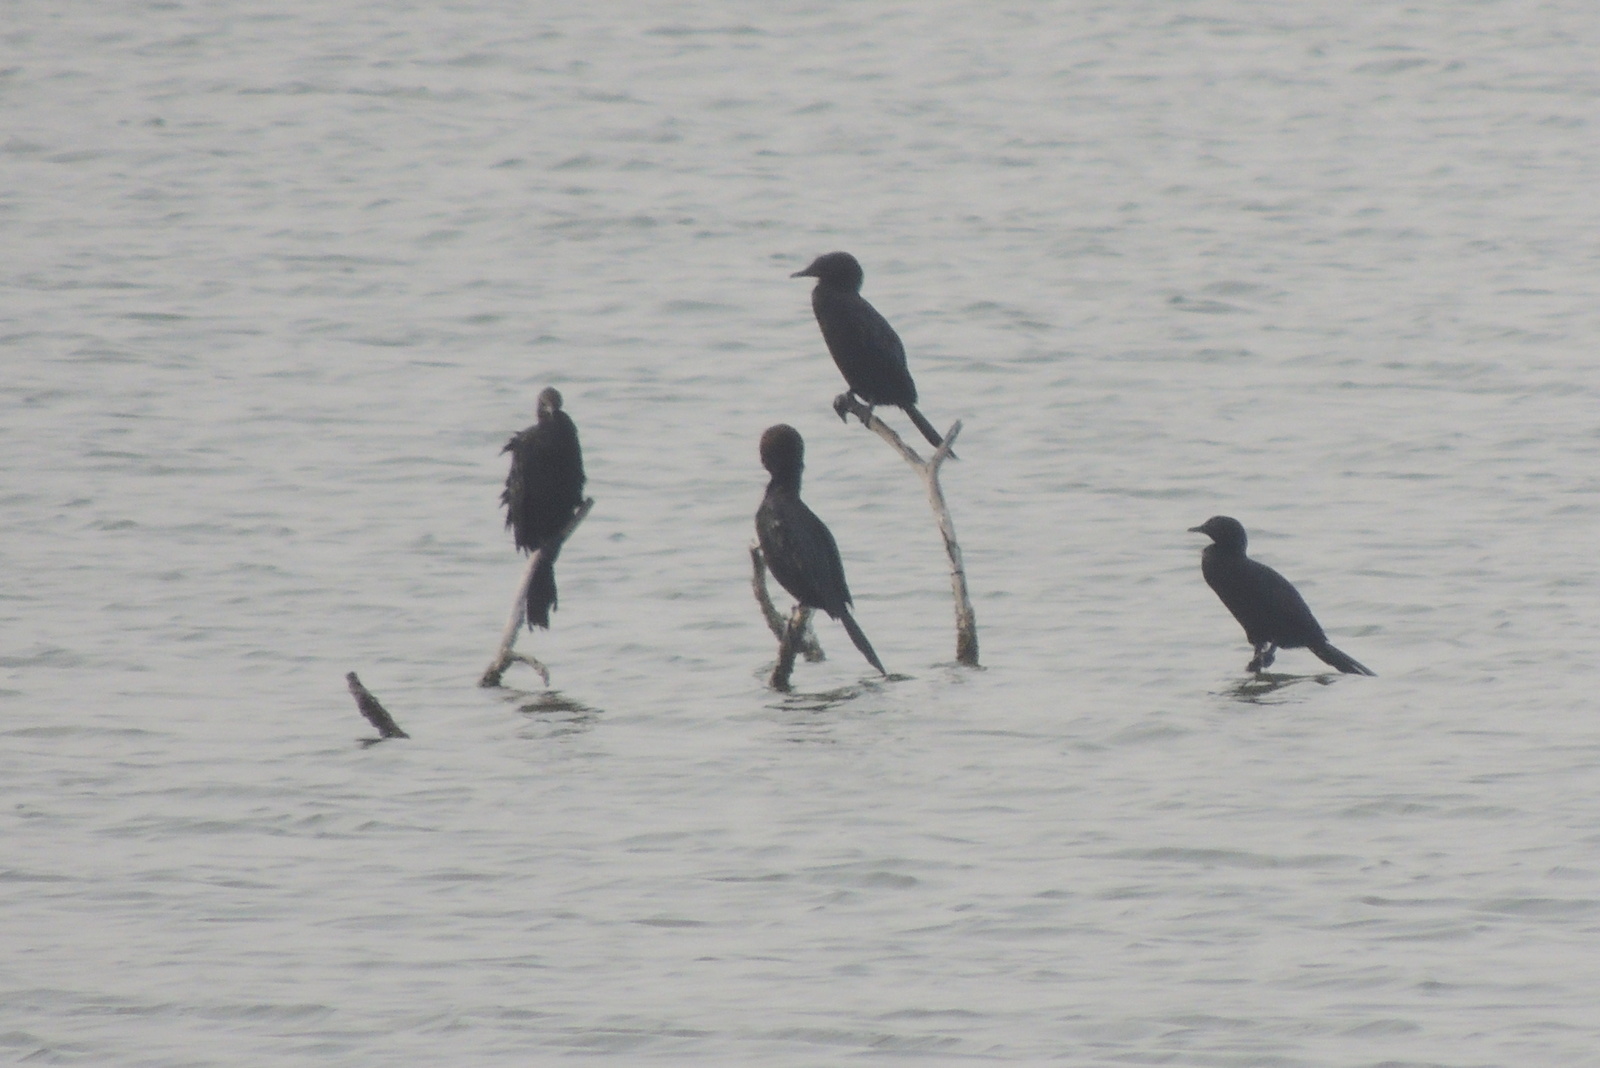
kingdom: Animalia
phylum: Chordata
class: Aves
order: Suliformes
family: Phalacrocoracidae
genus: Microcarbo
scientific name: Microcarbo niger
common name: Little cormorant
